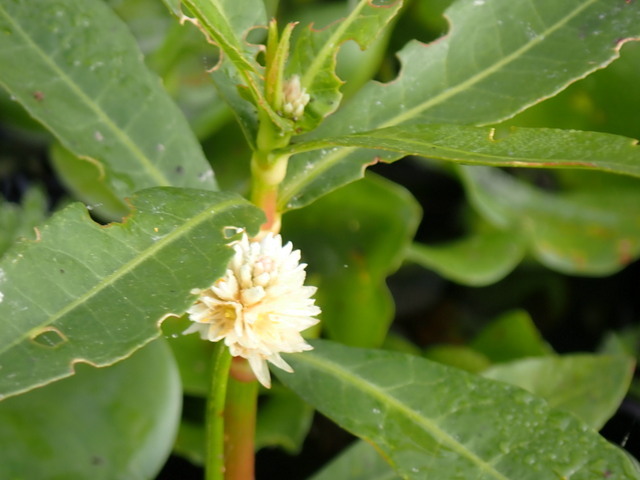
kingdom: Plantae
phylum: Tracheophyta
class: Magnoliopsida
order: Caryophyllales
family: Amaranthaceae
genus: Alternanthera
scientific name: Alternanthera philoxeroides
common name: Alligatorweed
